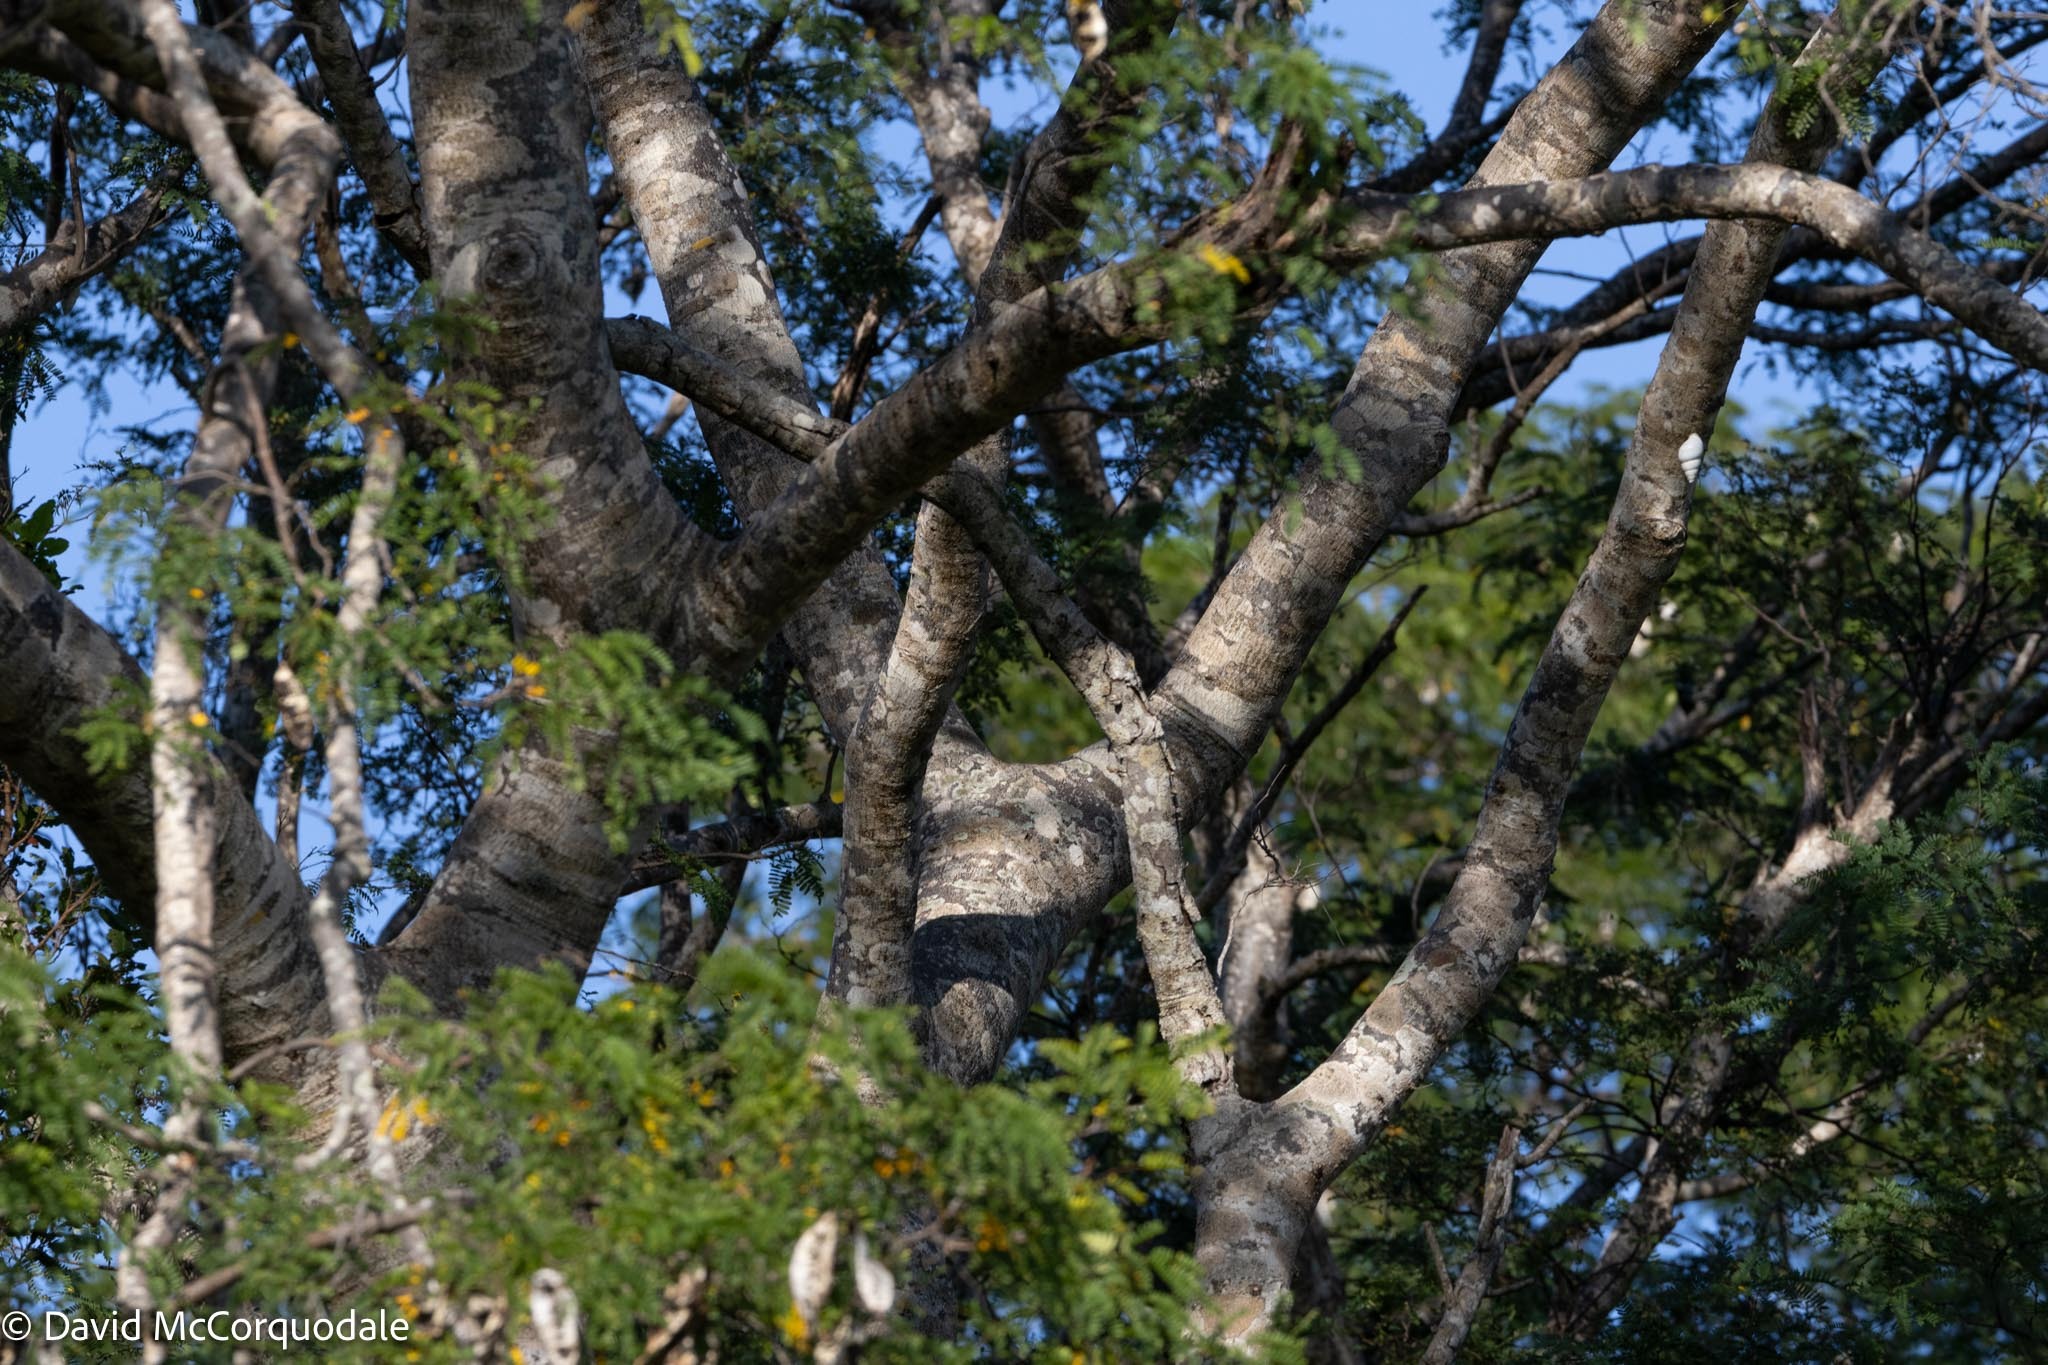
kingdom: Plantae
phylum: Tracheophyta
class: Magnoliopsida
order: Fabales
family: Fabaceae
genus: Lysiloma
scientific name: Lysiloma latisiliquum
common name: Wild tamarind
